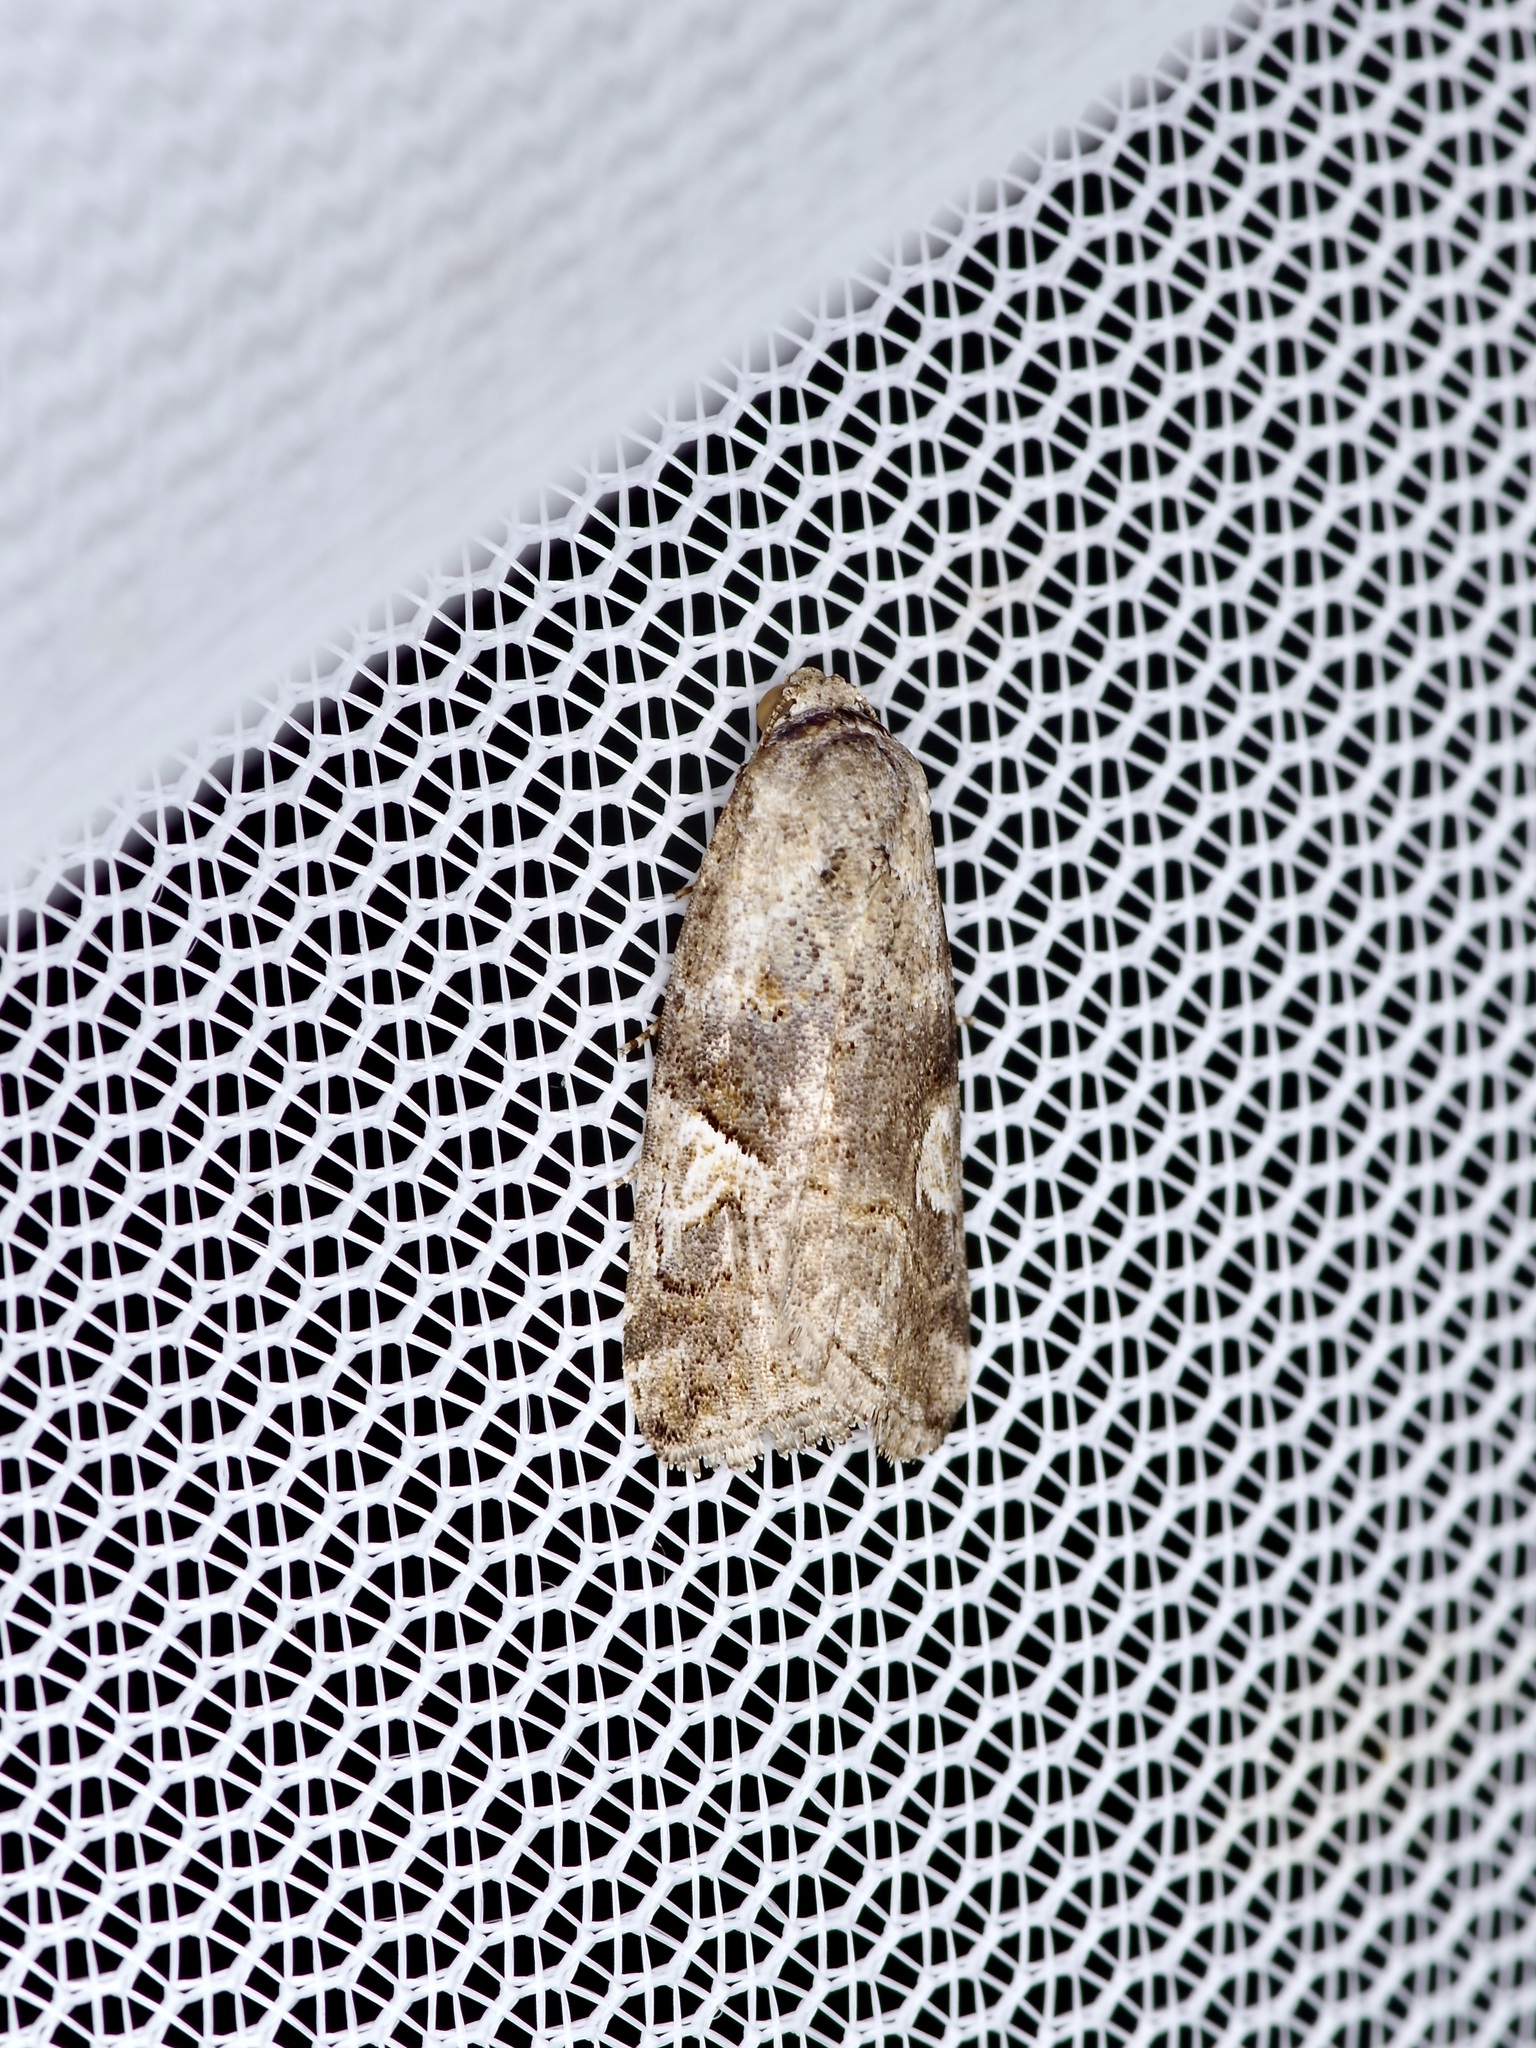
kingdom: Animalia
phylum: Arthropoda
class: Insecta
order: Lepidoptera
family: Noctuidae
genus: Metaponpneumata
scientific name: Metaponpneumata rogenhoferi
